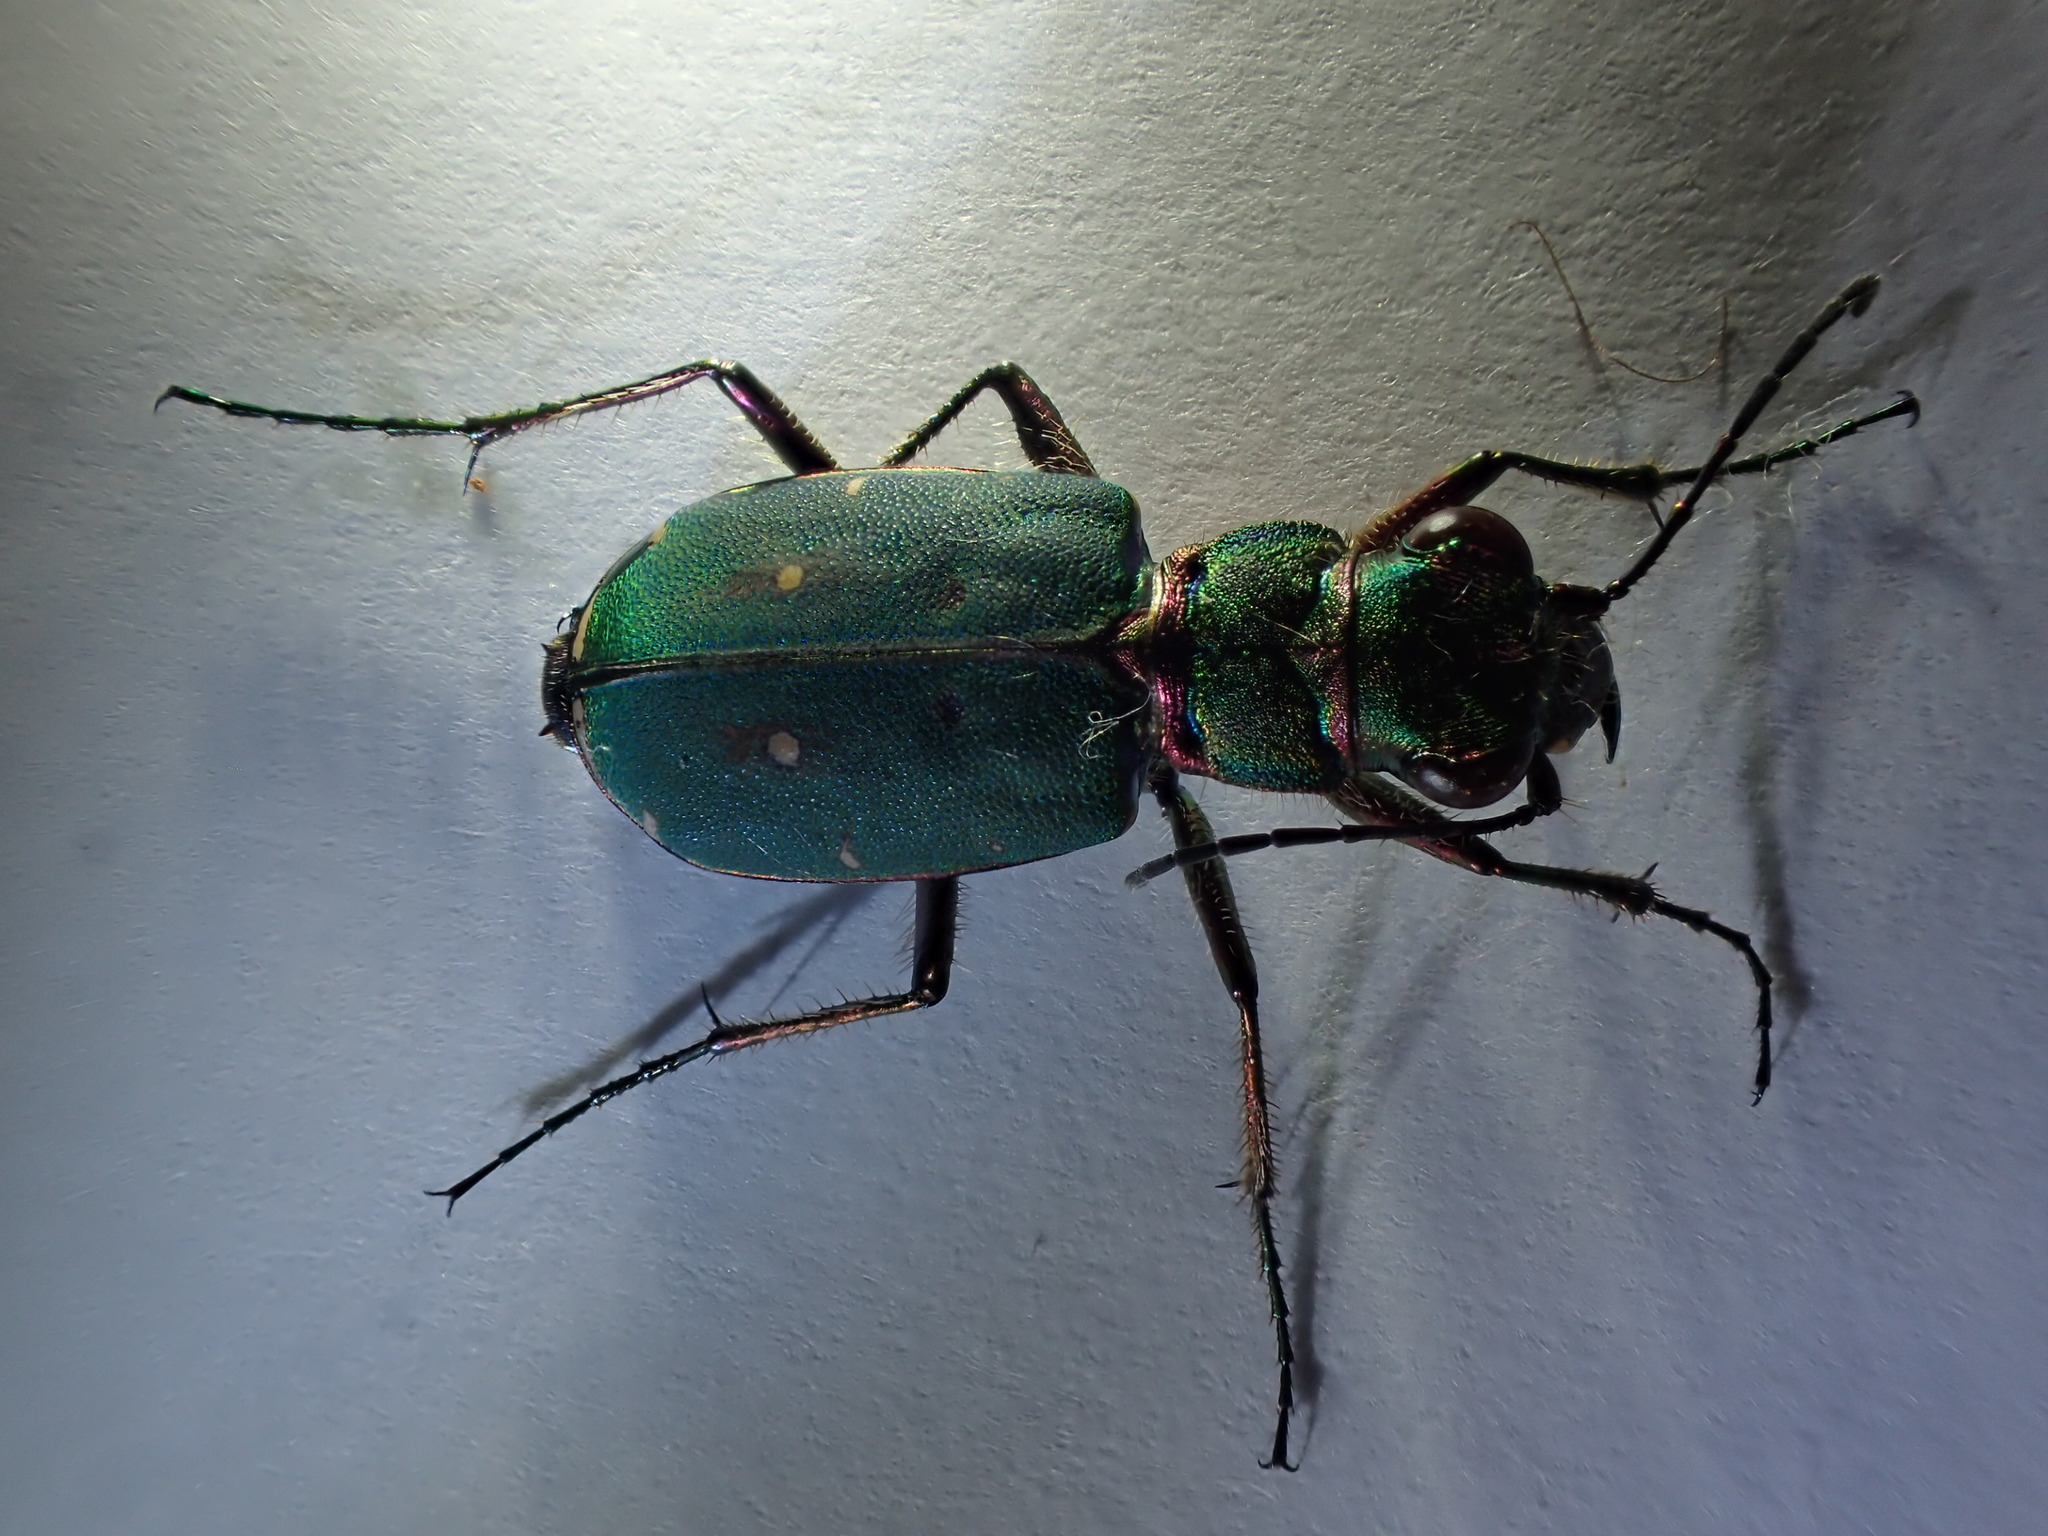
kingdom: Animalia
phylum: Arthropoda
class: Insecta
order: Coleoptera
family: Carabidae
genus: Cicindela
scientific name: Cicindela campestris
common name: Common tiger beetle
